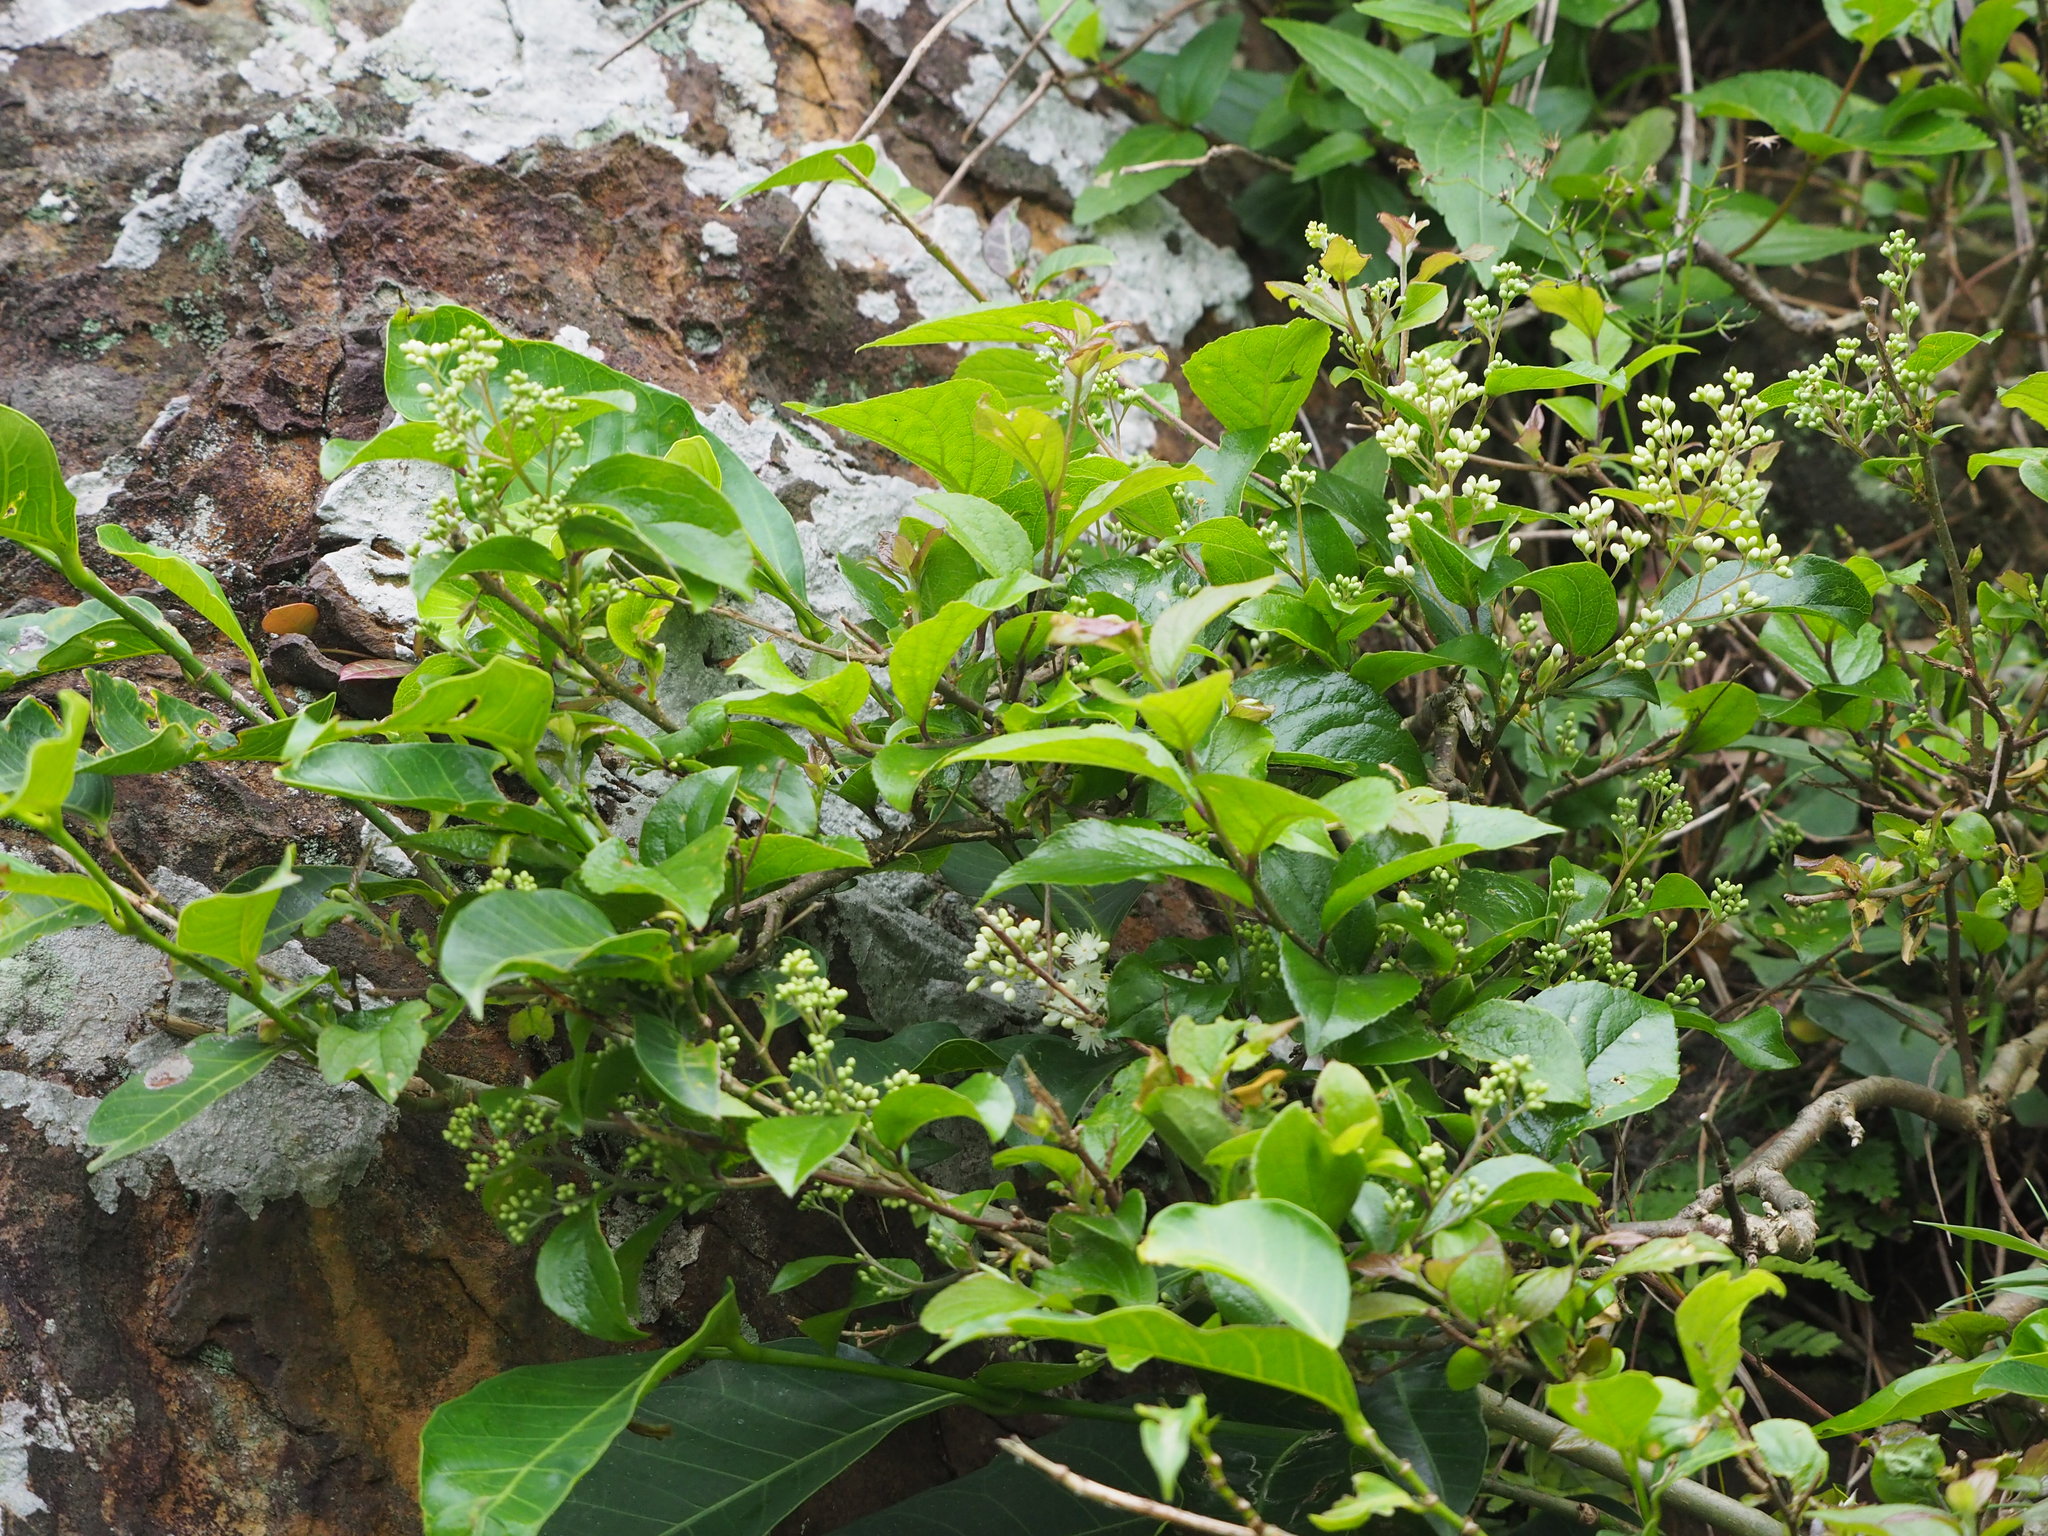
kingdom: Plantae
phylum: Tracheophyta
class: Magnoliopsida
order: Ericales
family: Symplocaceae
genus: Symplocos
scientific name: Symplocos paniculata
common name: Sapphire-berry
